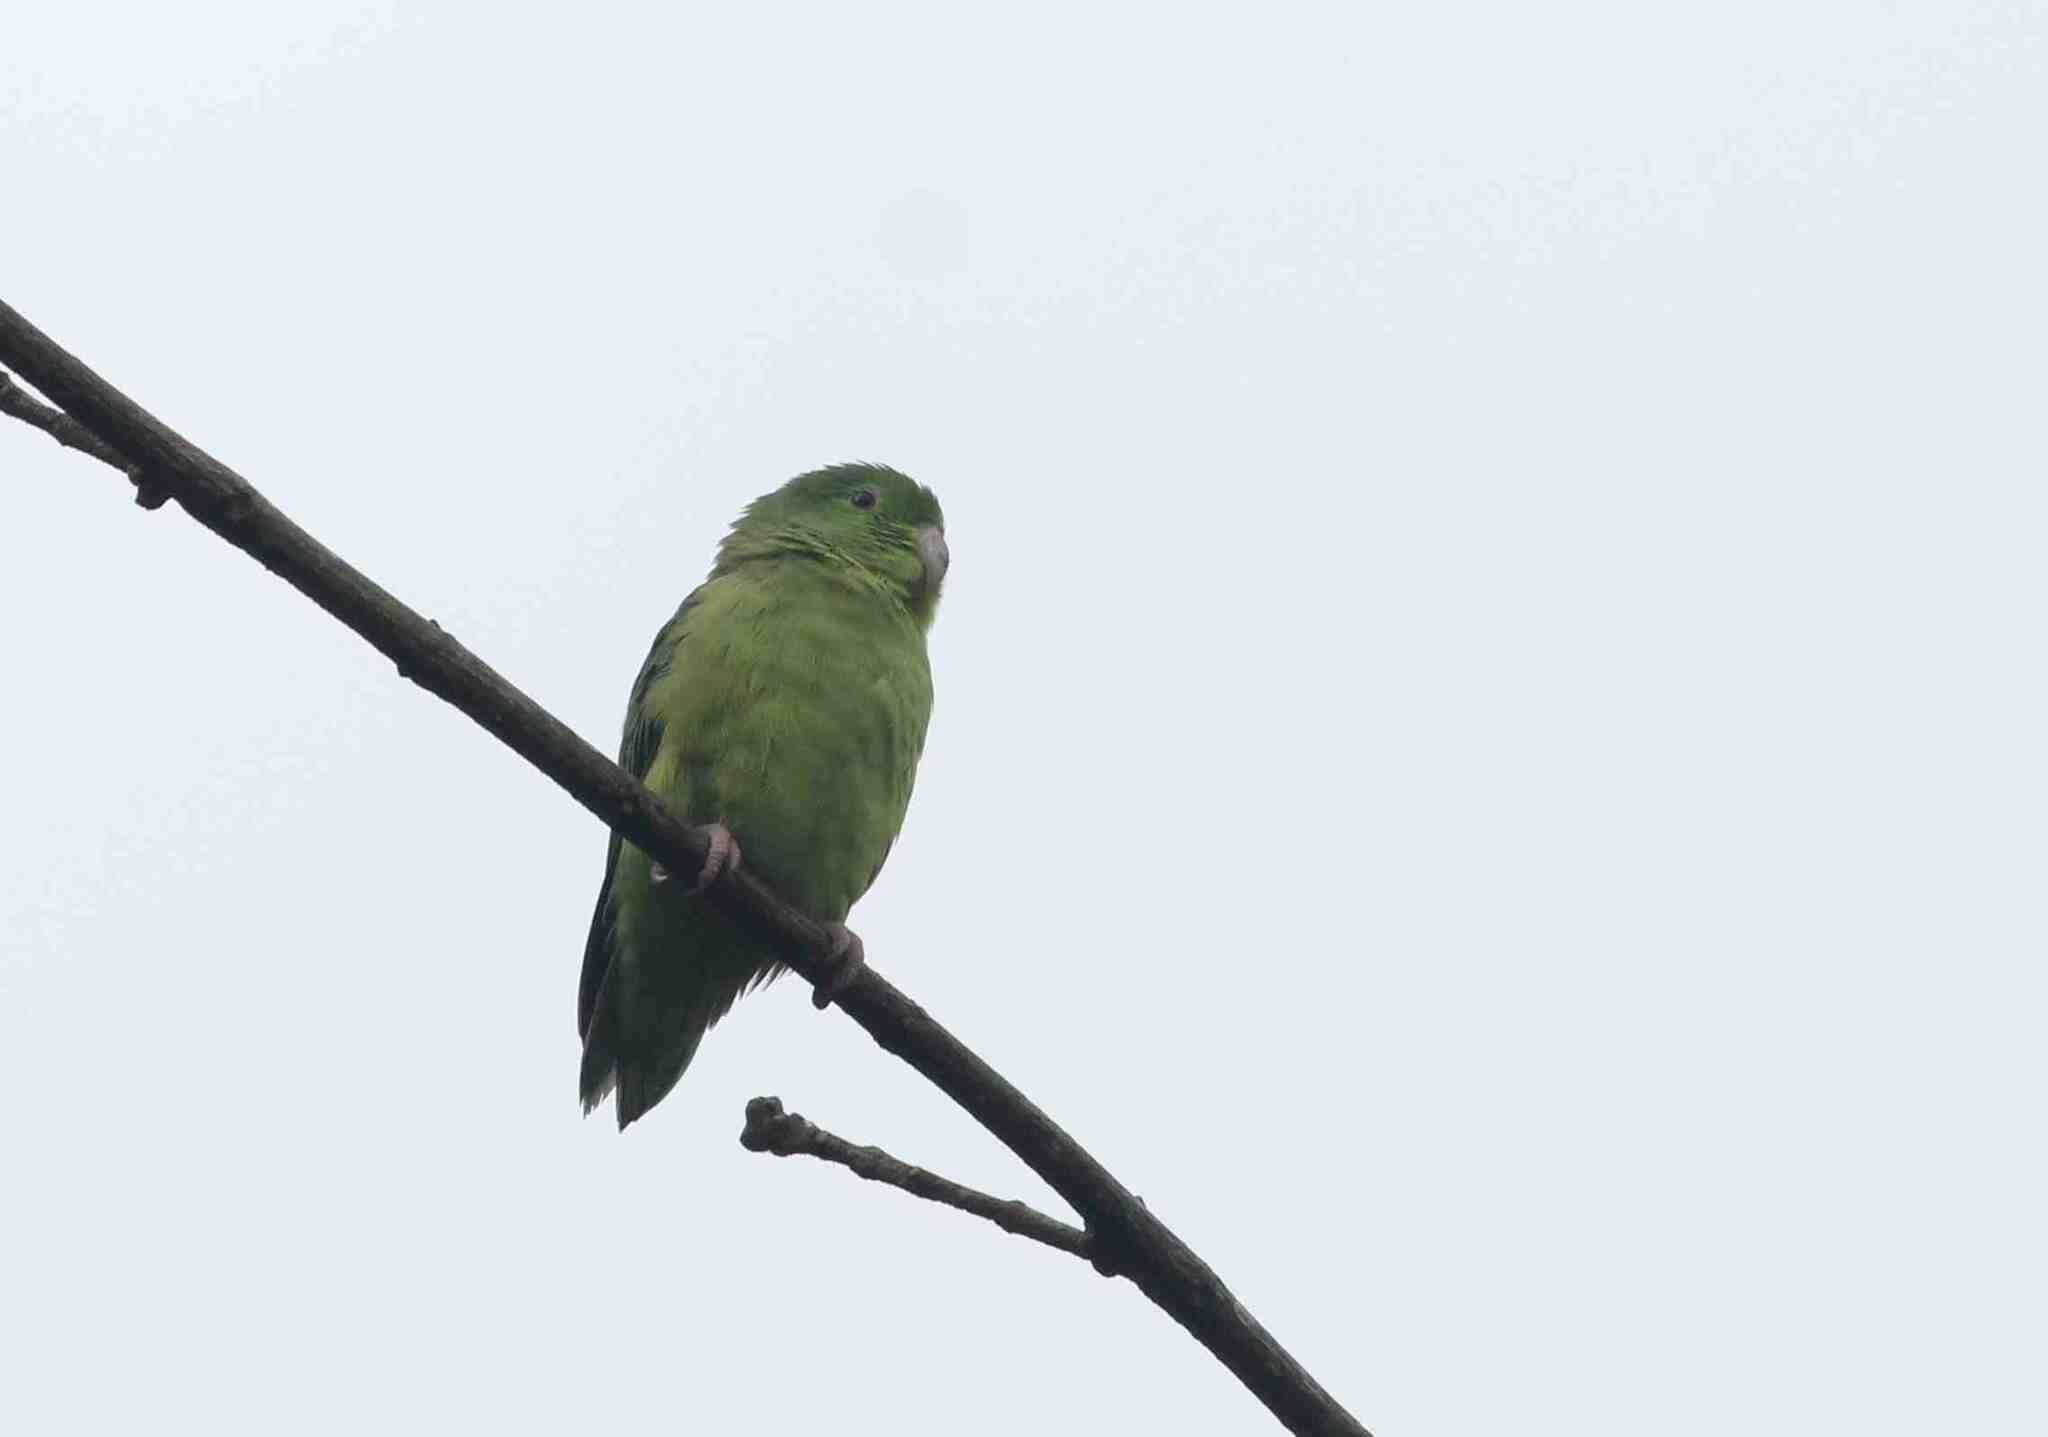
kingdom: Animalia
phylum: Chordata
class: Aves
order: Psittaciformes
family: Psittacidae
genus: Forpus
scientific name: Forpus conspicillatus
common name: Spectacled parrotlet
